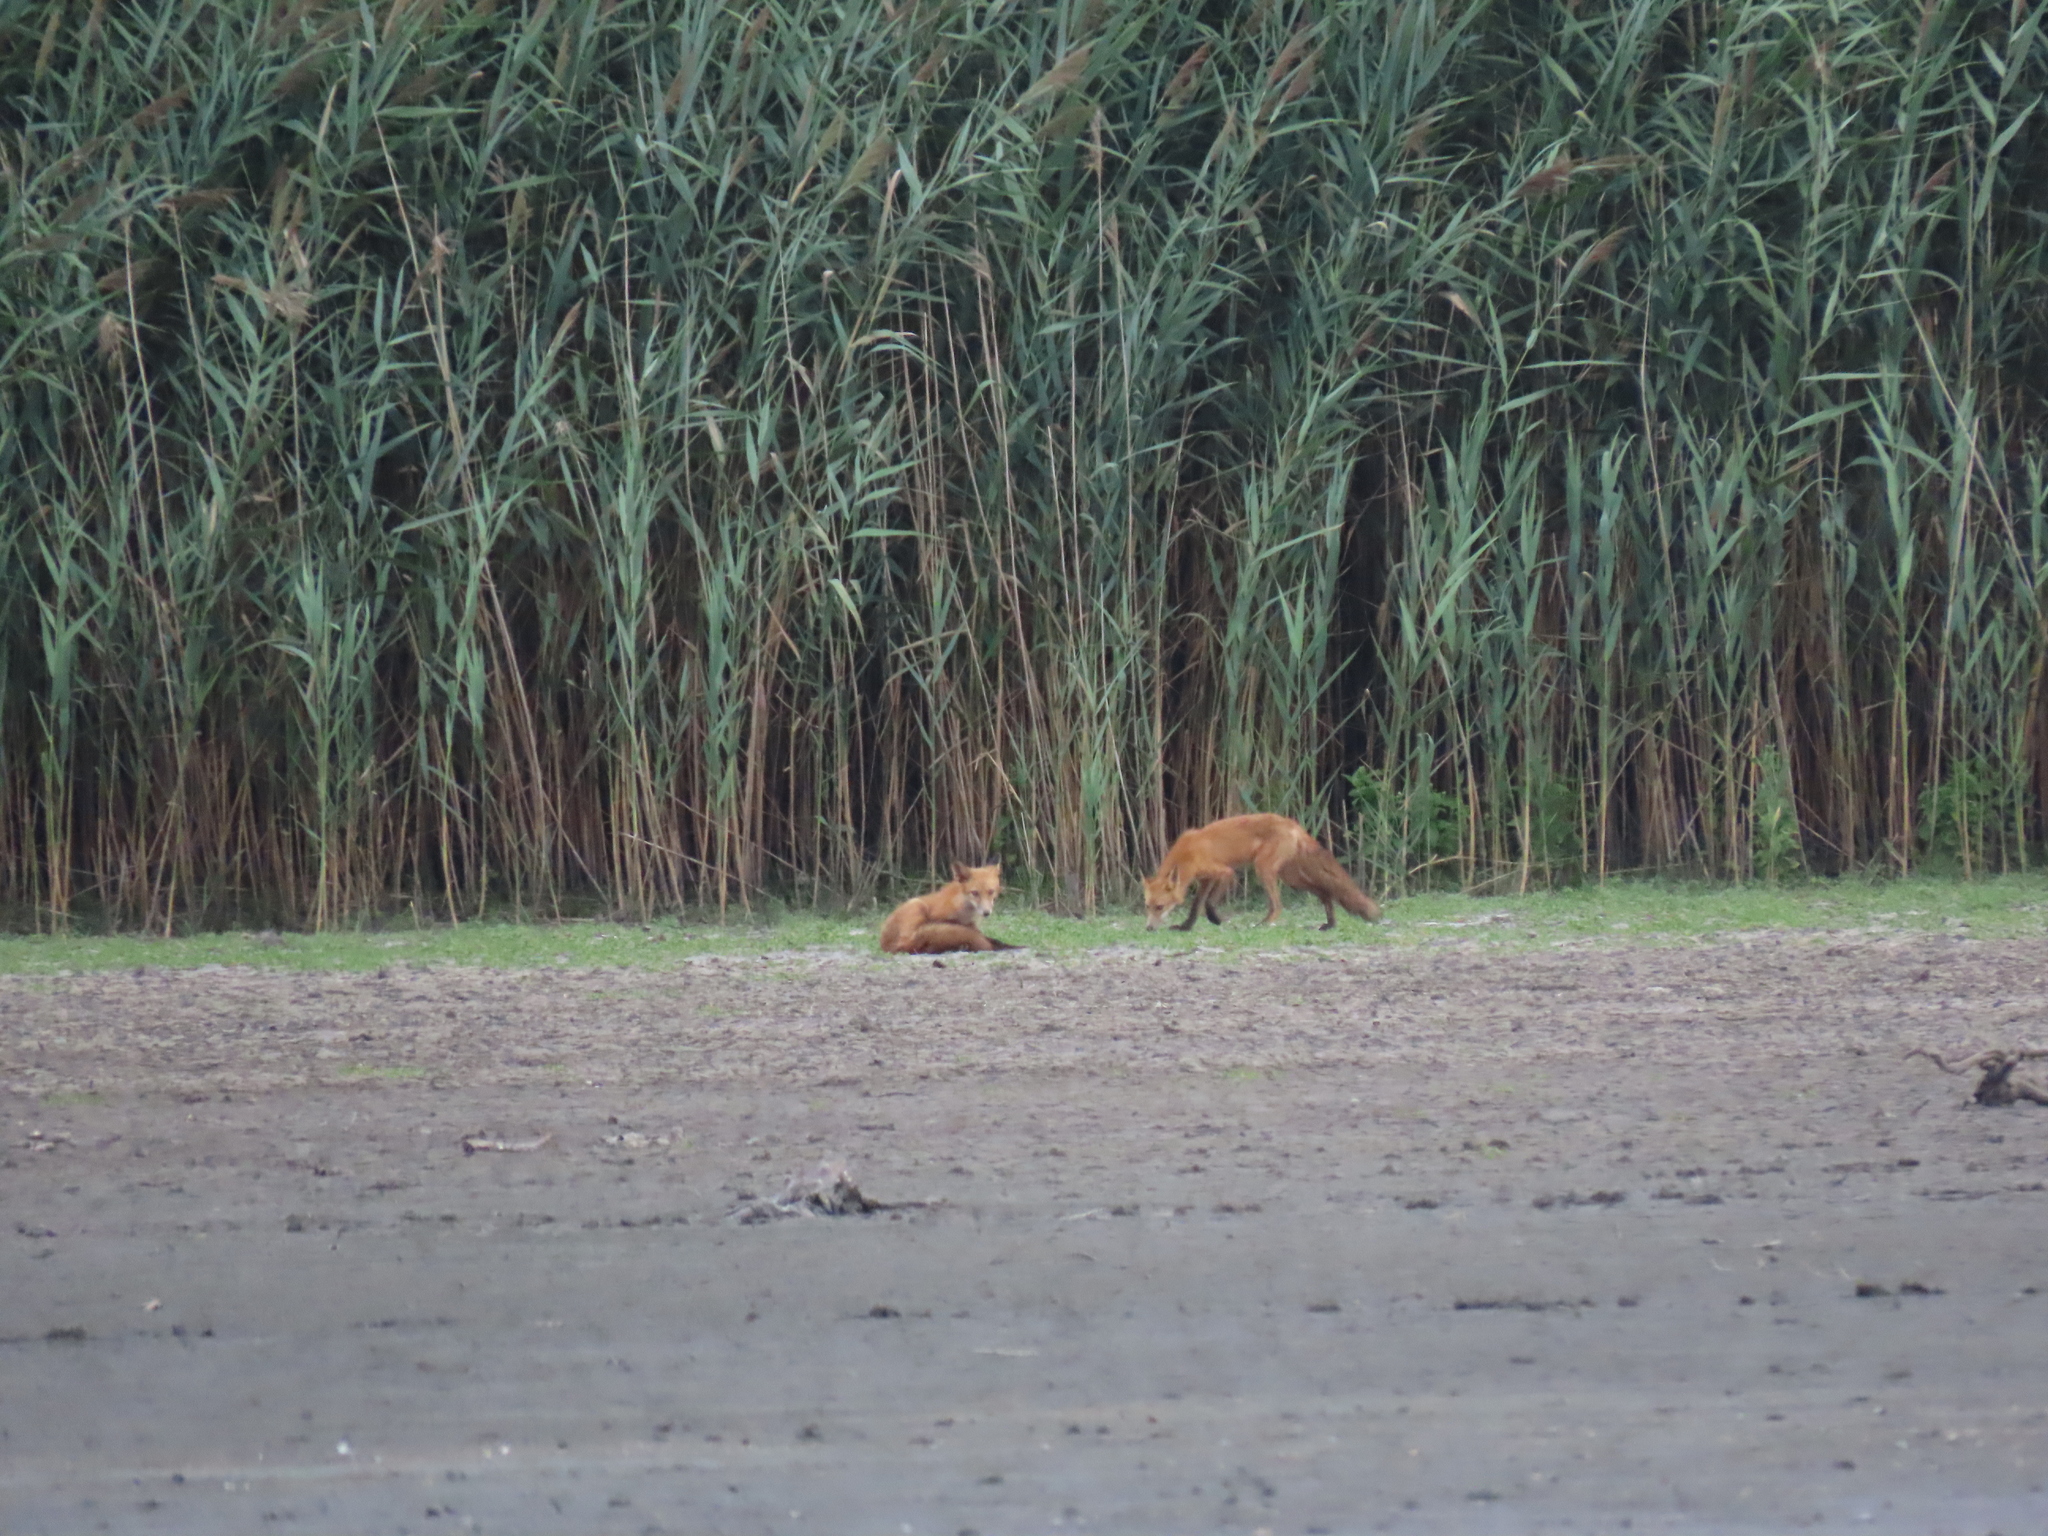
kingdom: Animalia
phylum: Chordata
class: Mammalia
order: Carnivora
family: Canidae
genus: Vulpes
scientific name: Vulpes vulpes
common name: Red fox
